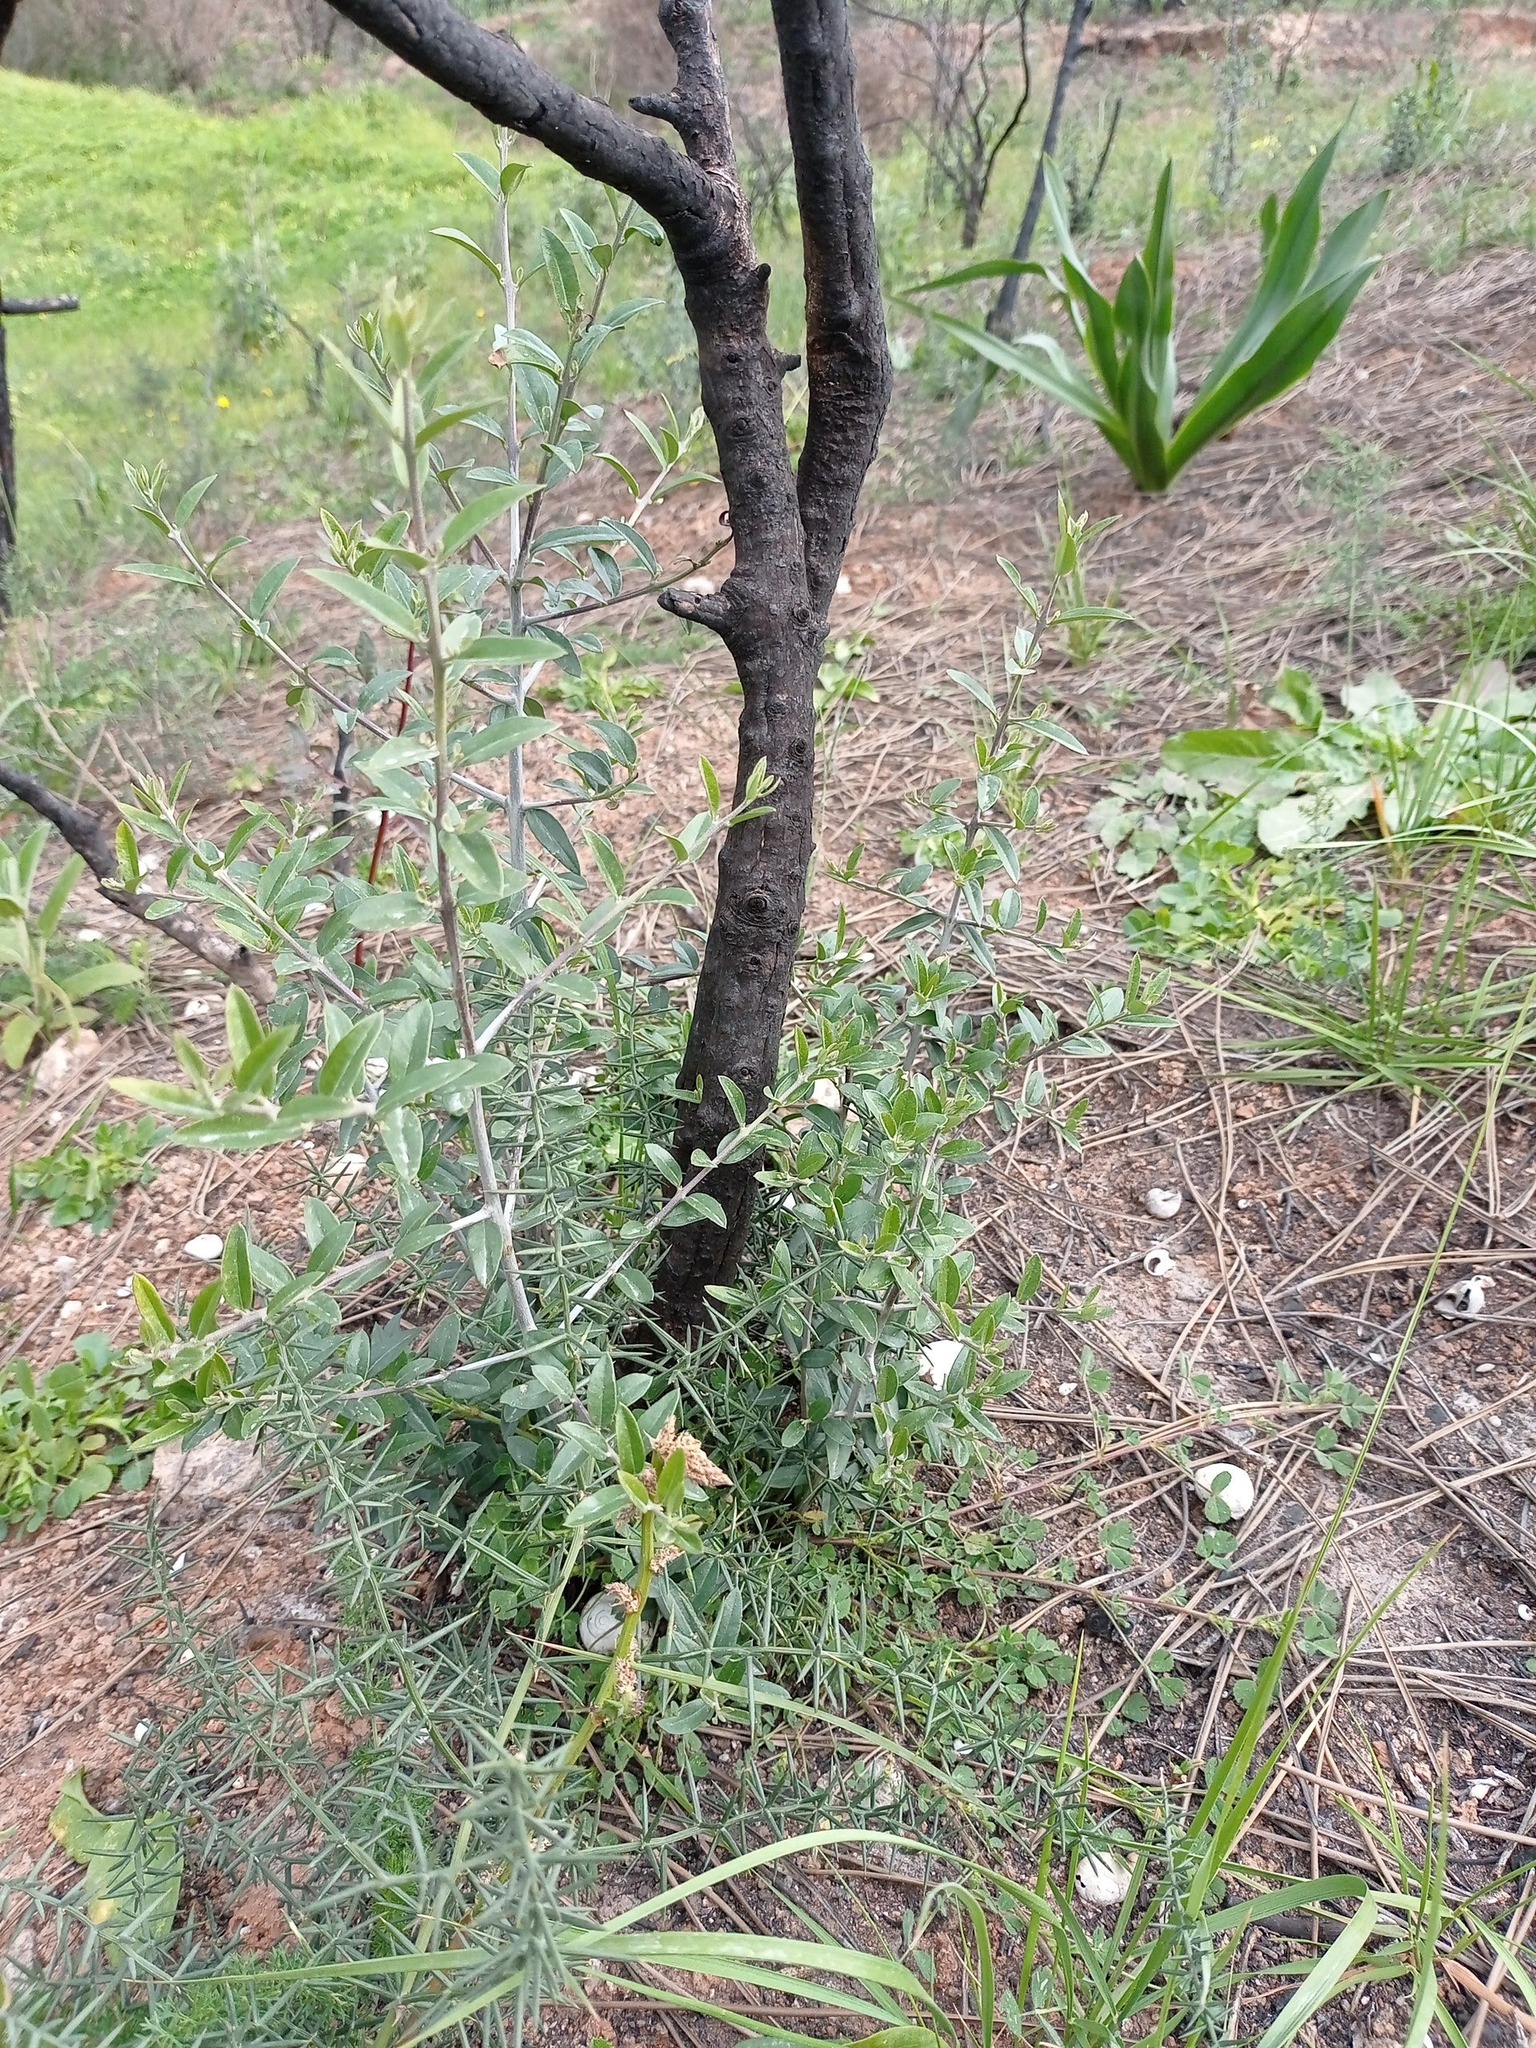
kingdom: Plantae
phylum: Tracheophyta
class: Magnoliopsida
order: Lamiales
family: Oleaceae
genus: Olea
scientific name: Olea europaea
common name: Olive
